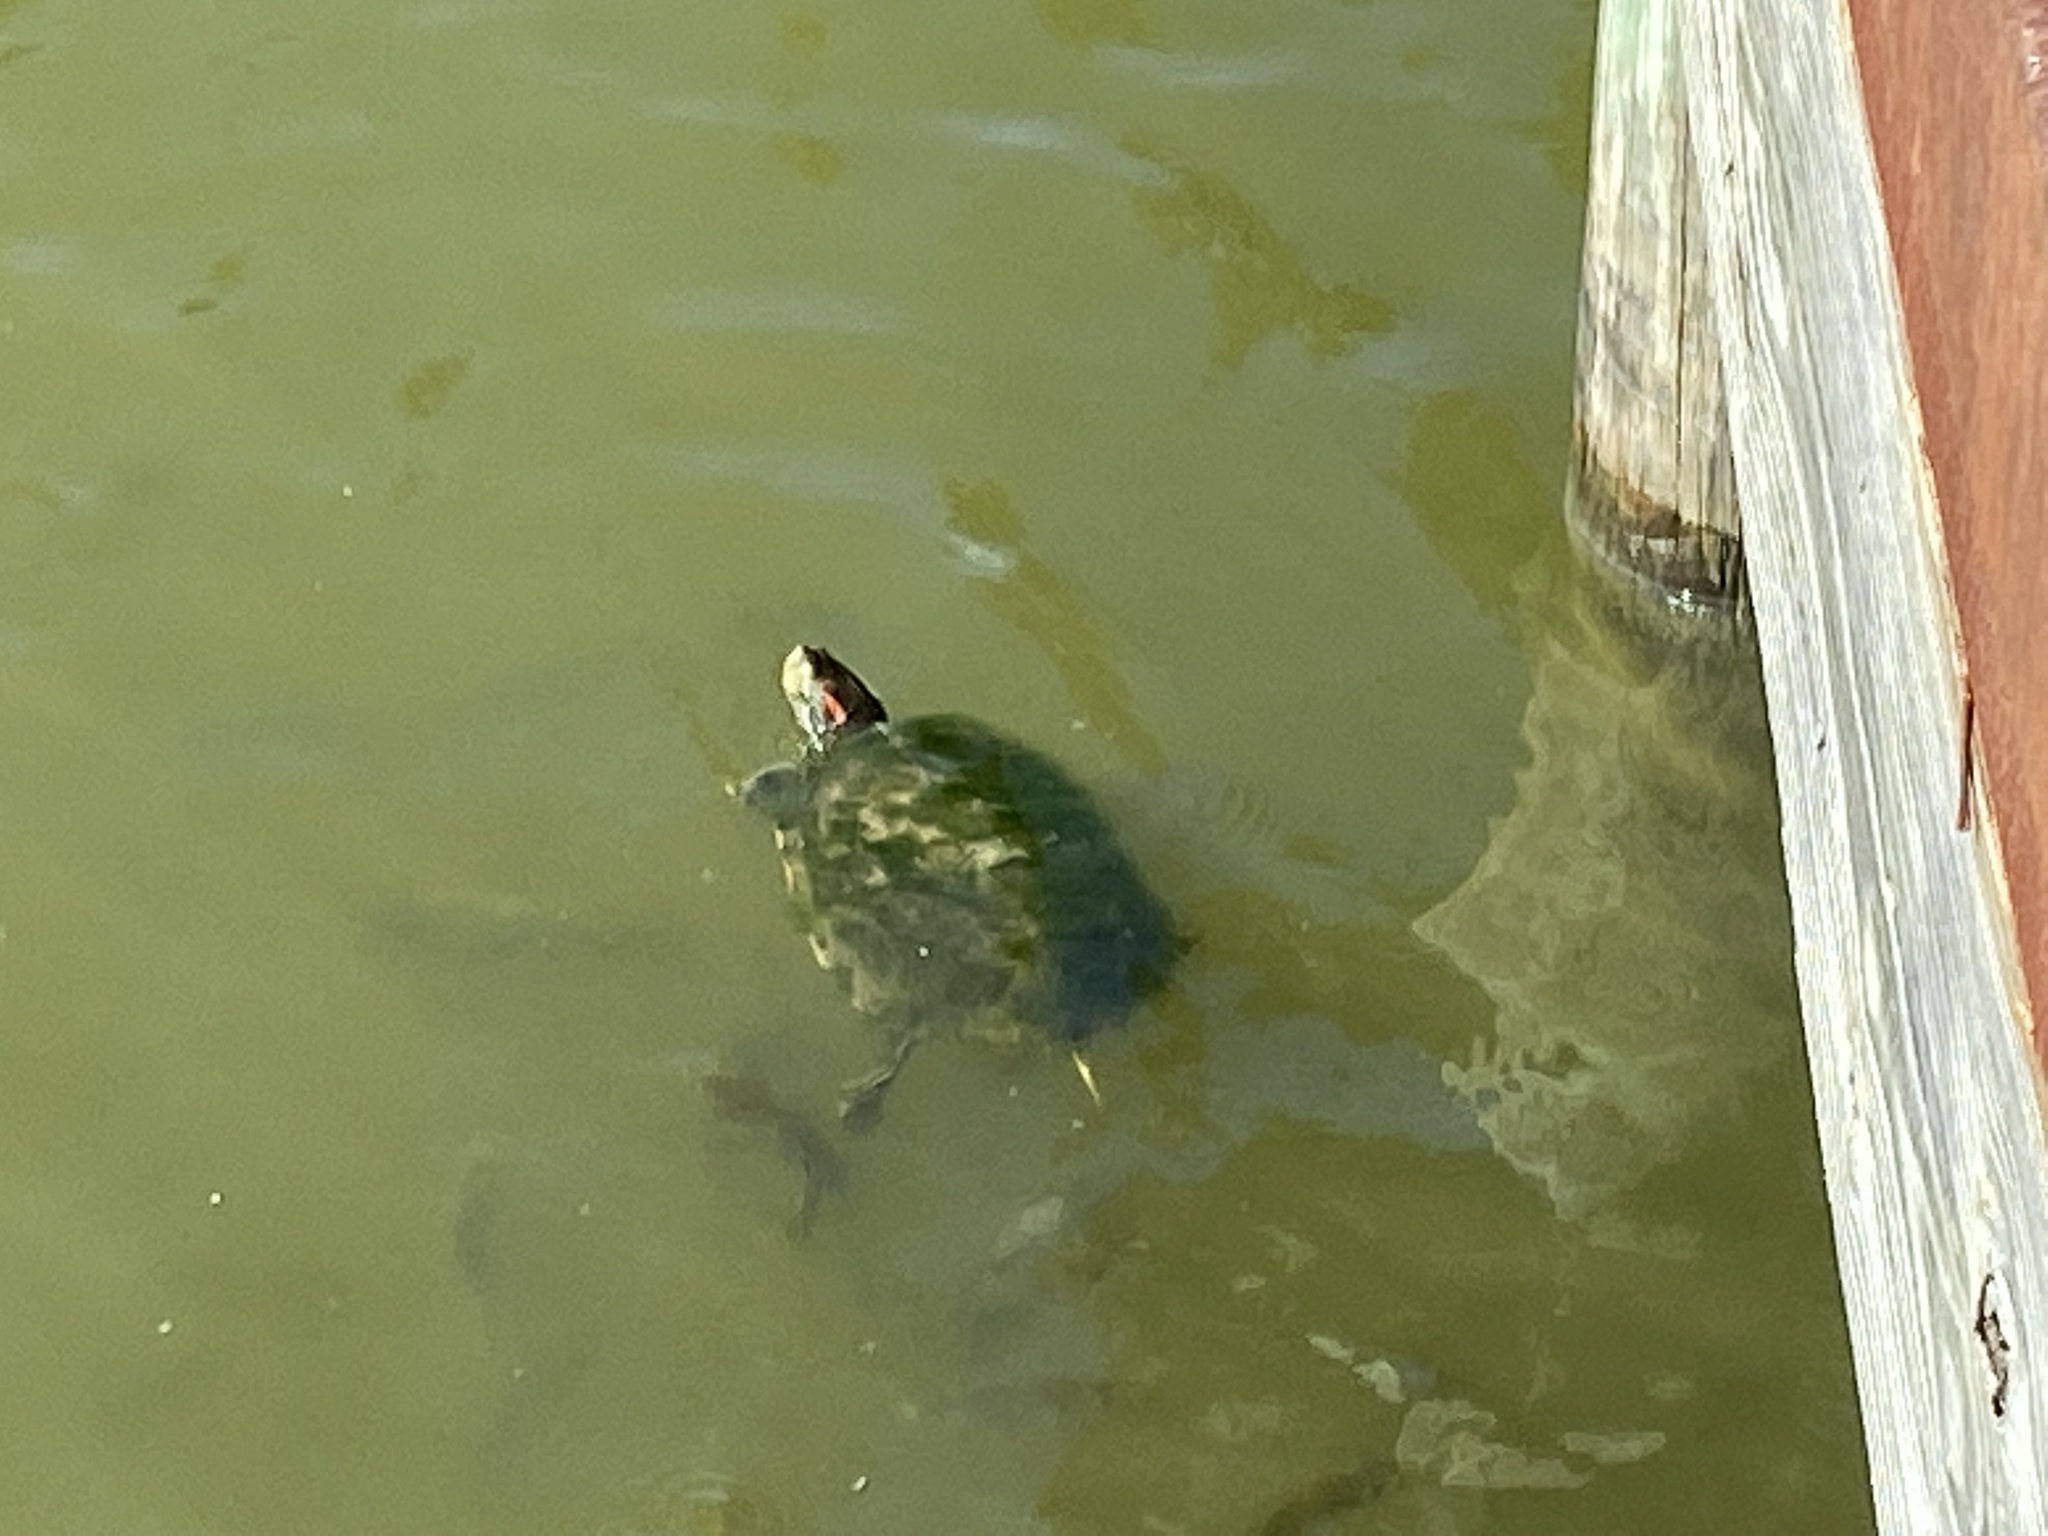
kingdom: Animalia
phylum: Chordata
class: Testudines
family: Emydidae
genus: Trachemys
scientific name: Trachemys scripta
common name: Slider
